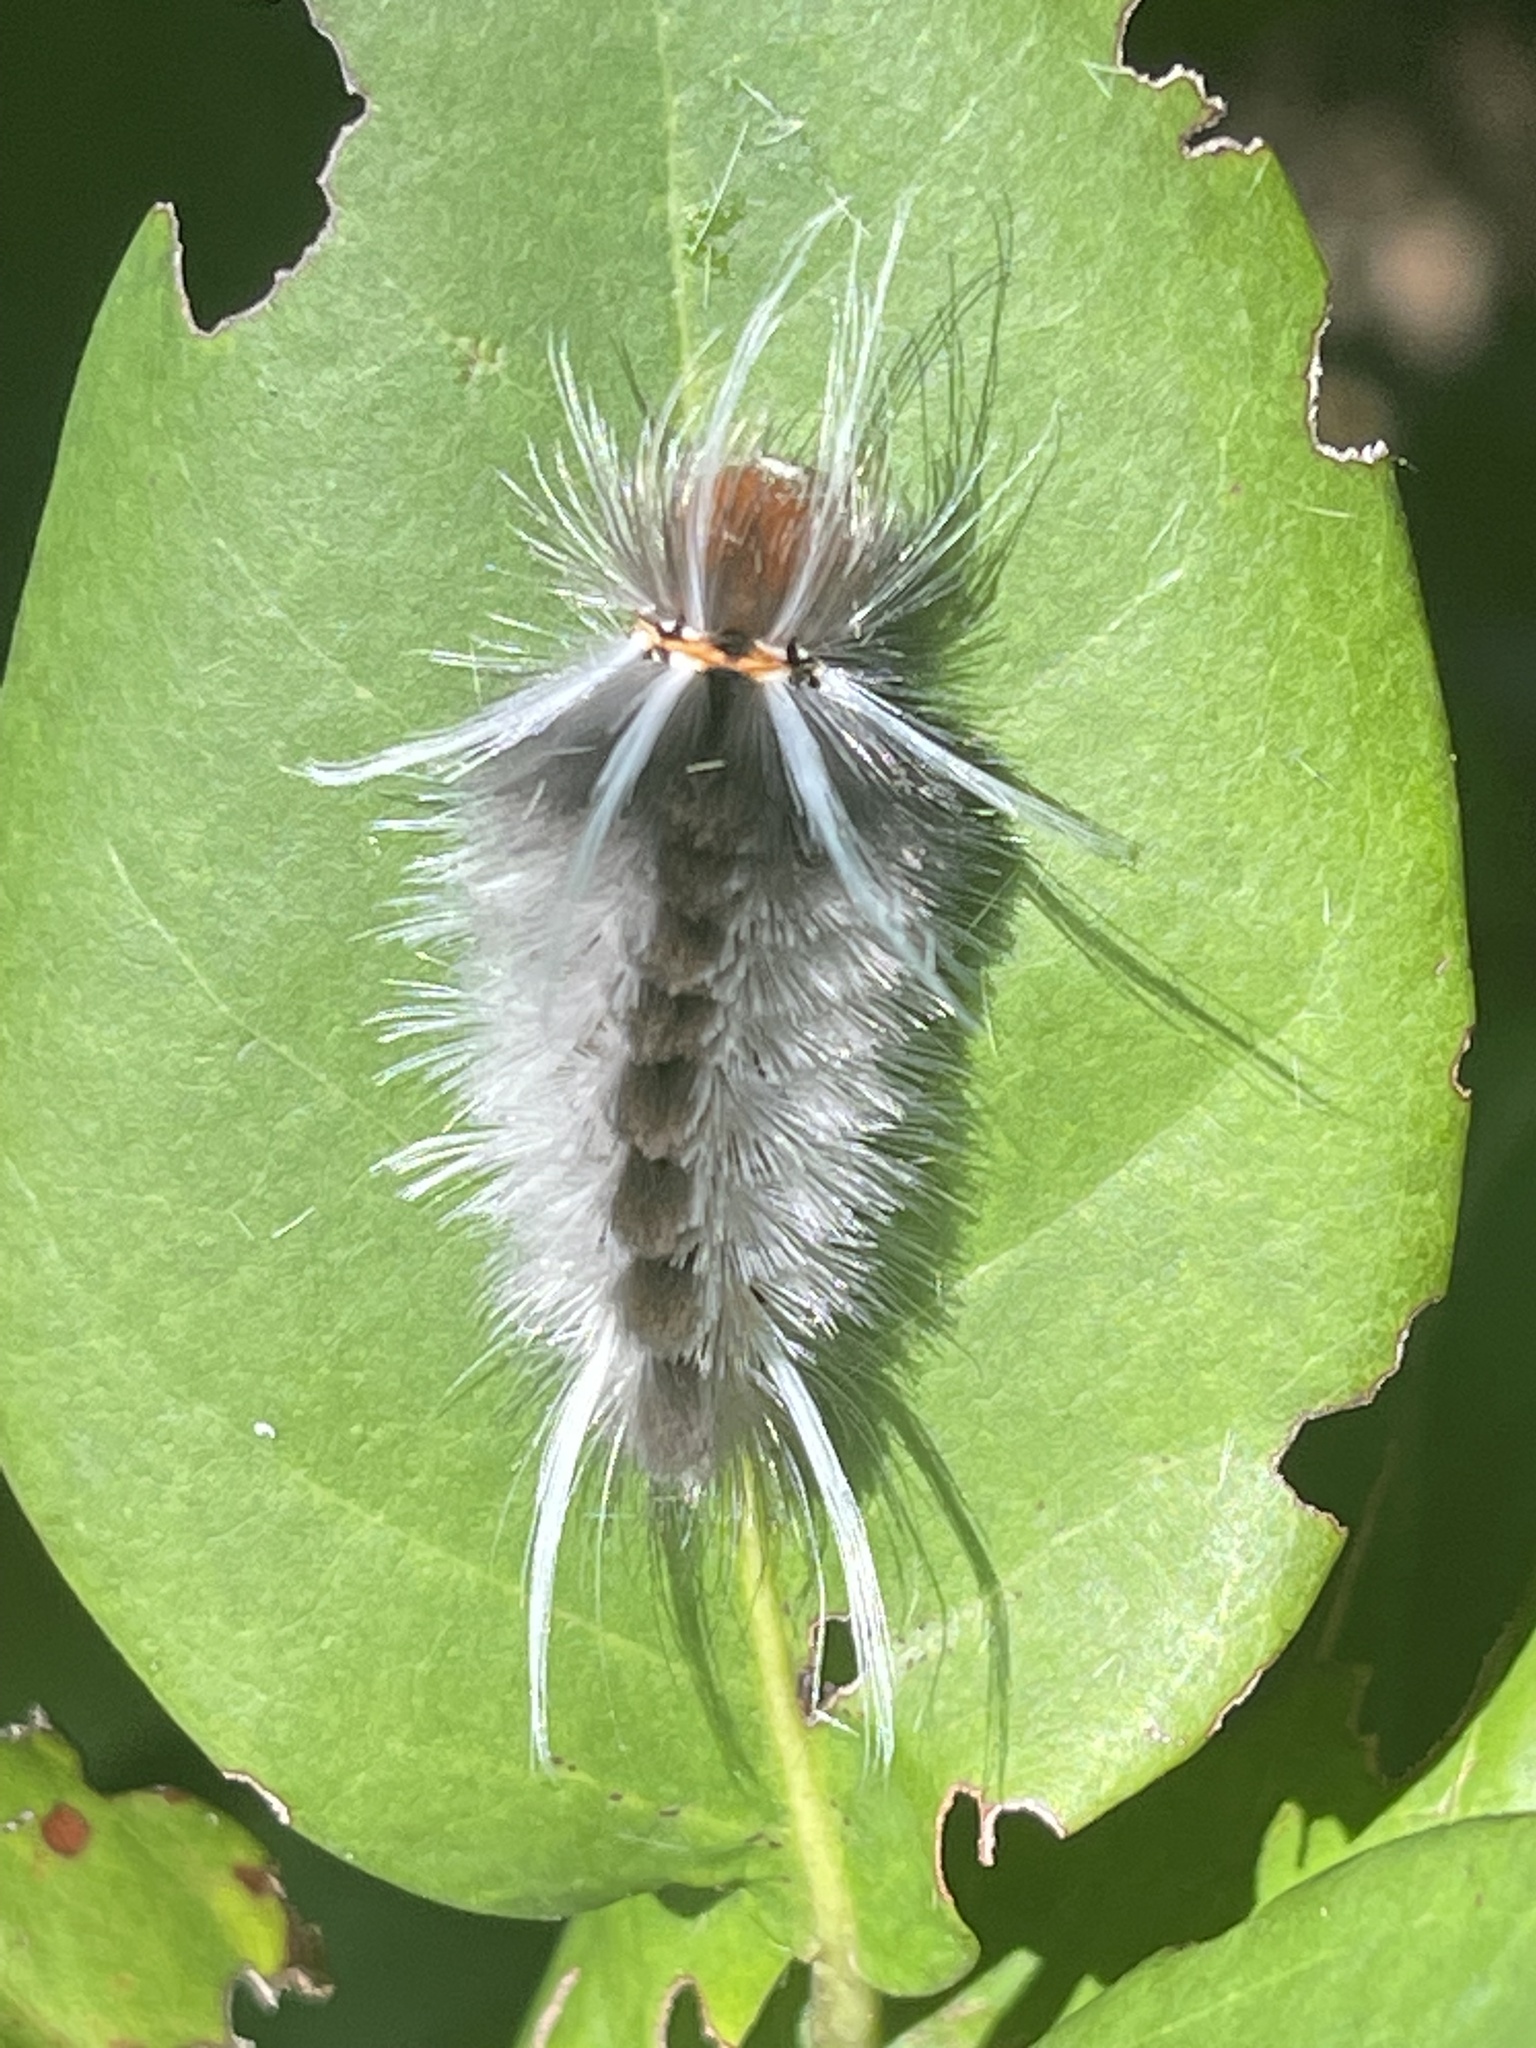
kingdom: Animalia
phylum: Arthropoda
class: Insecta
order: Lepidoptera
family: Erebidae
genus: Halysidota
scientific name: Halysidota cinctipes
